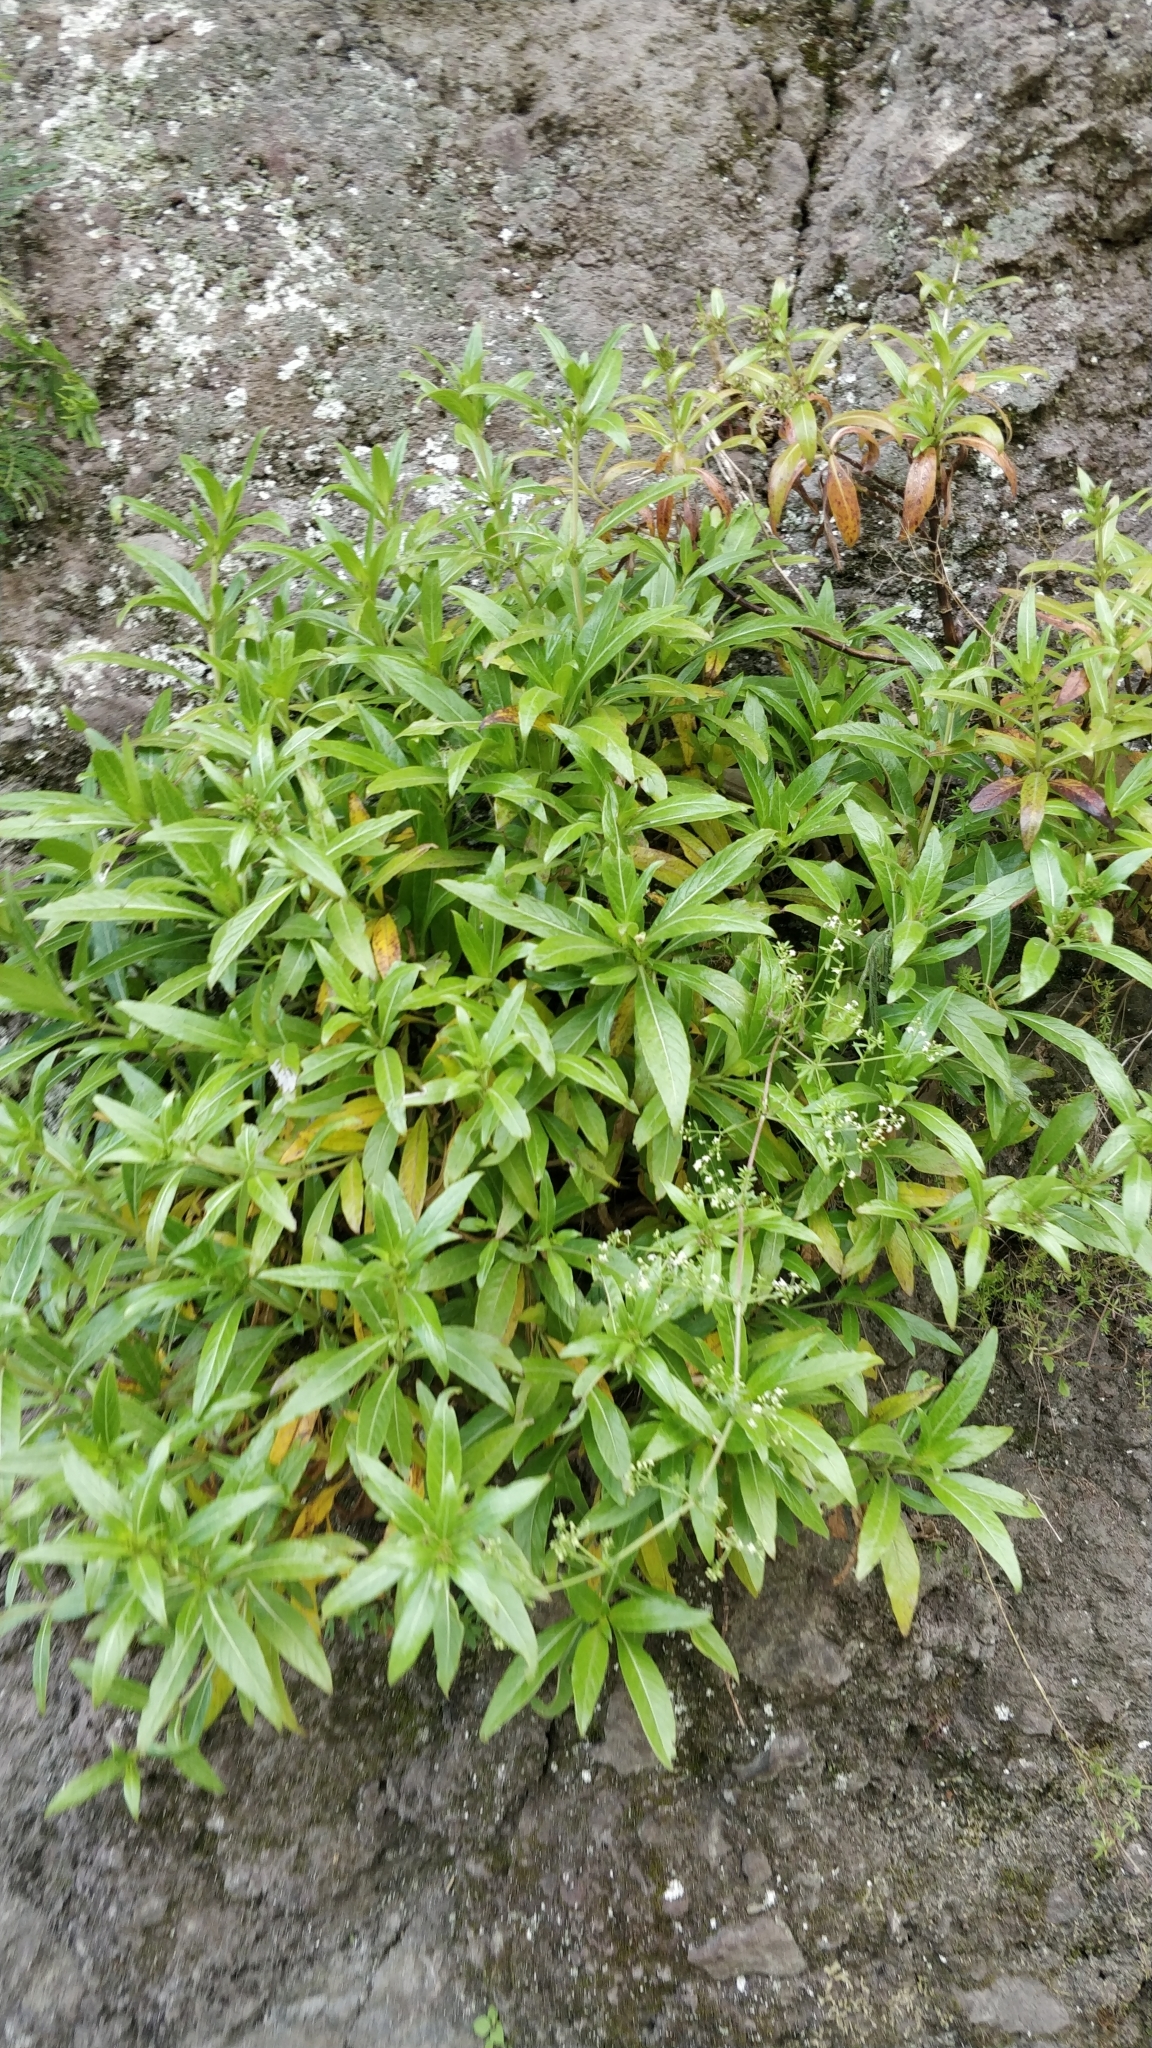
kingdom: Plantae
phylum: Tracheophyta
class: Magnoliopsida
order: Gentianales
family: Rubiaceae
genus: Phyllis
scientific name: Phyllis nobla
